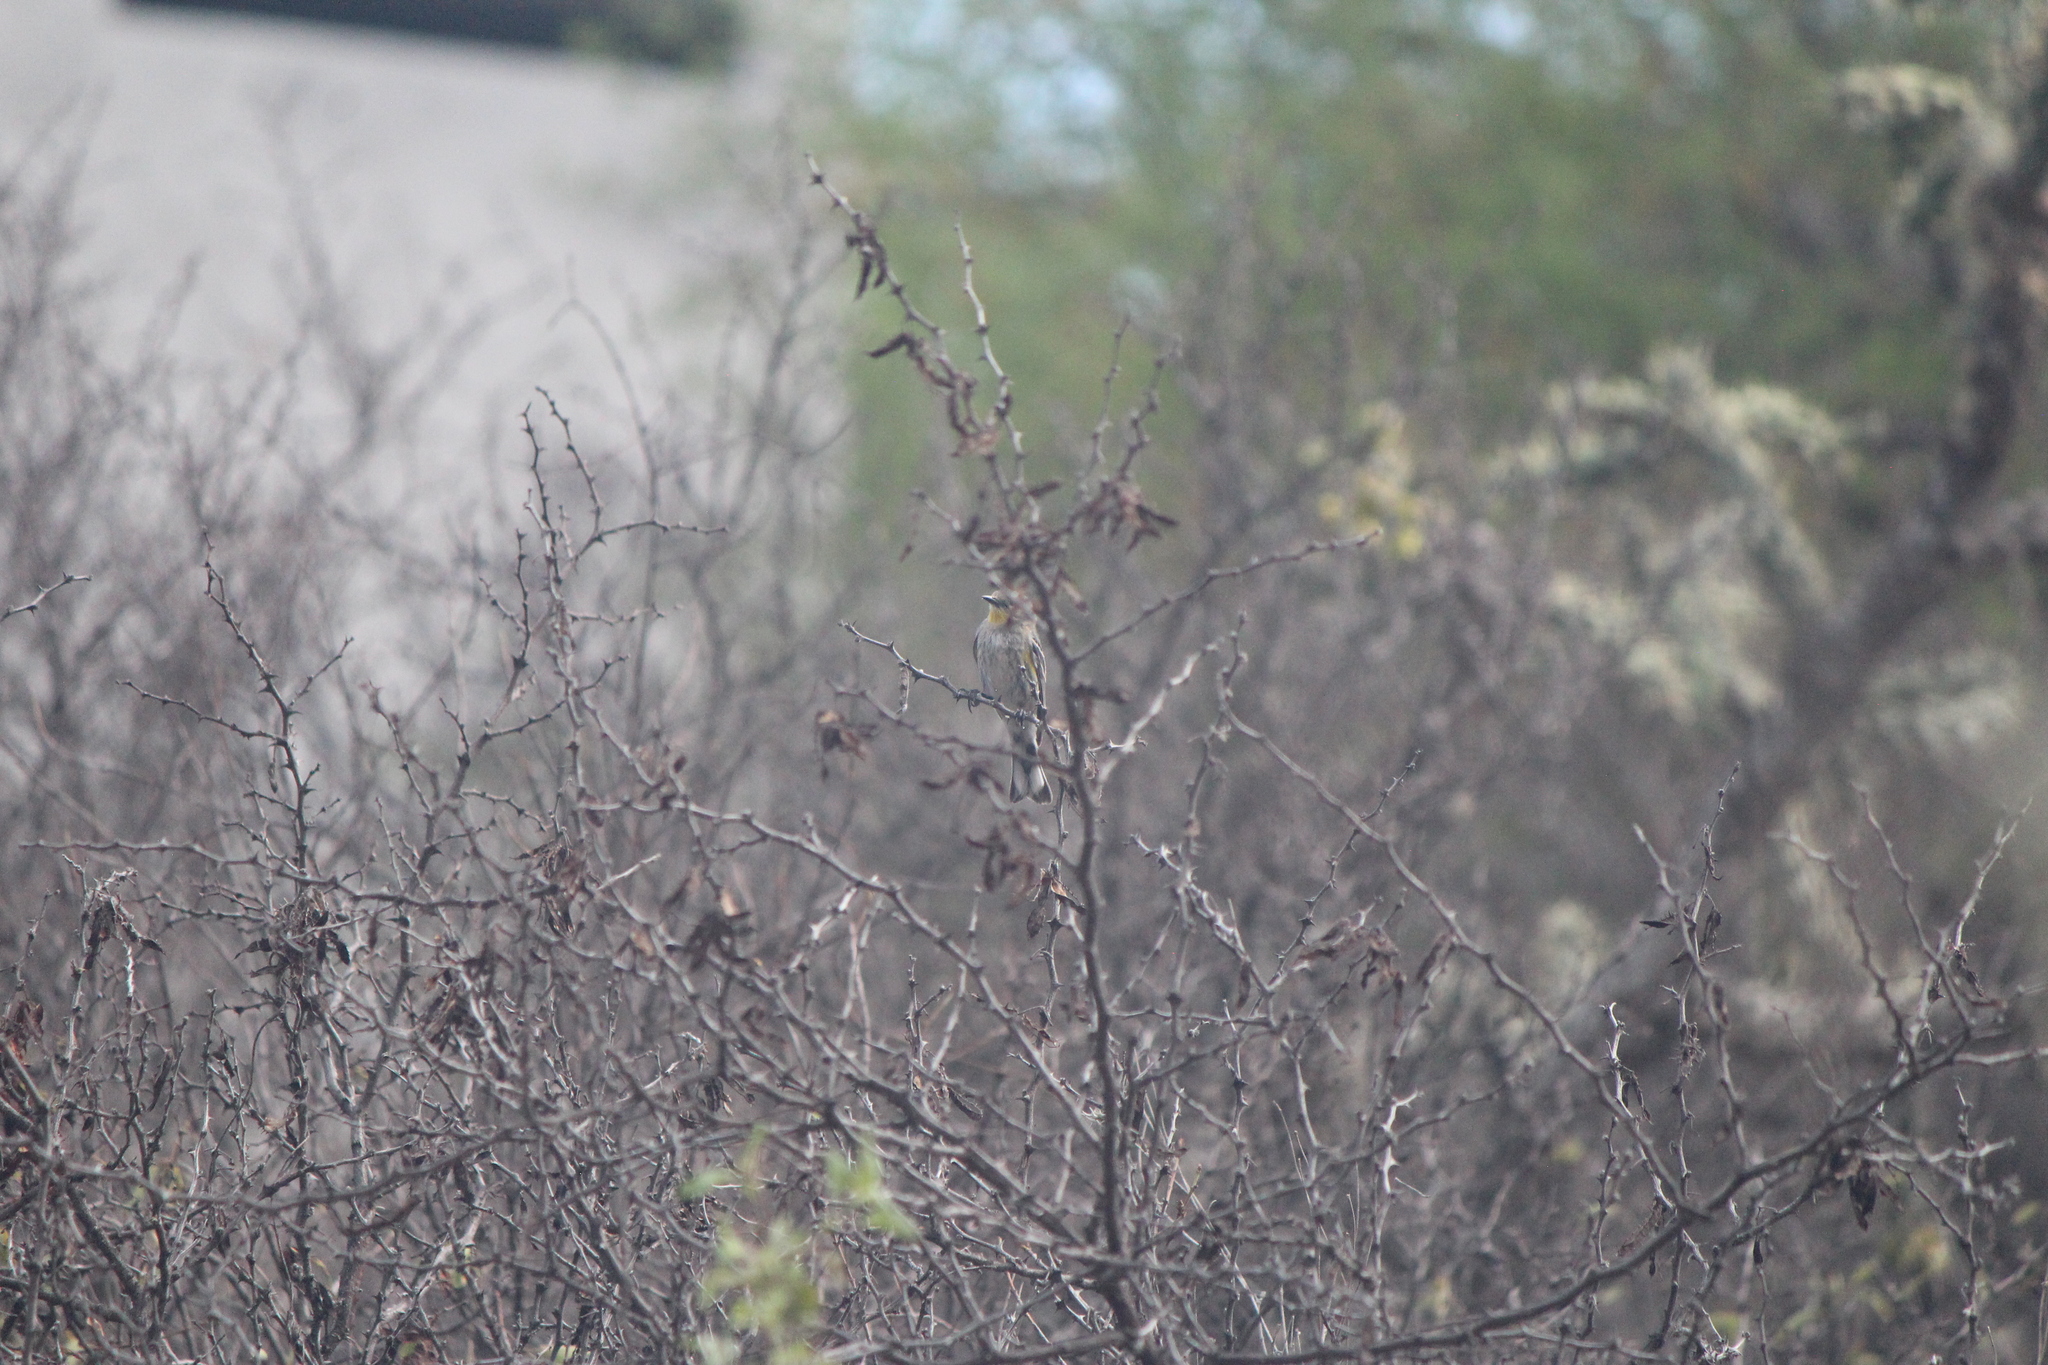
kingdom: Animalia
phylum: Chordata
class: Aves
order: Passeriformes
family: Parulidae
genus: Setophaga
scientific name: Setophaga coronata
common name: Myrtle warbler
